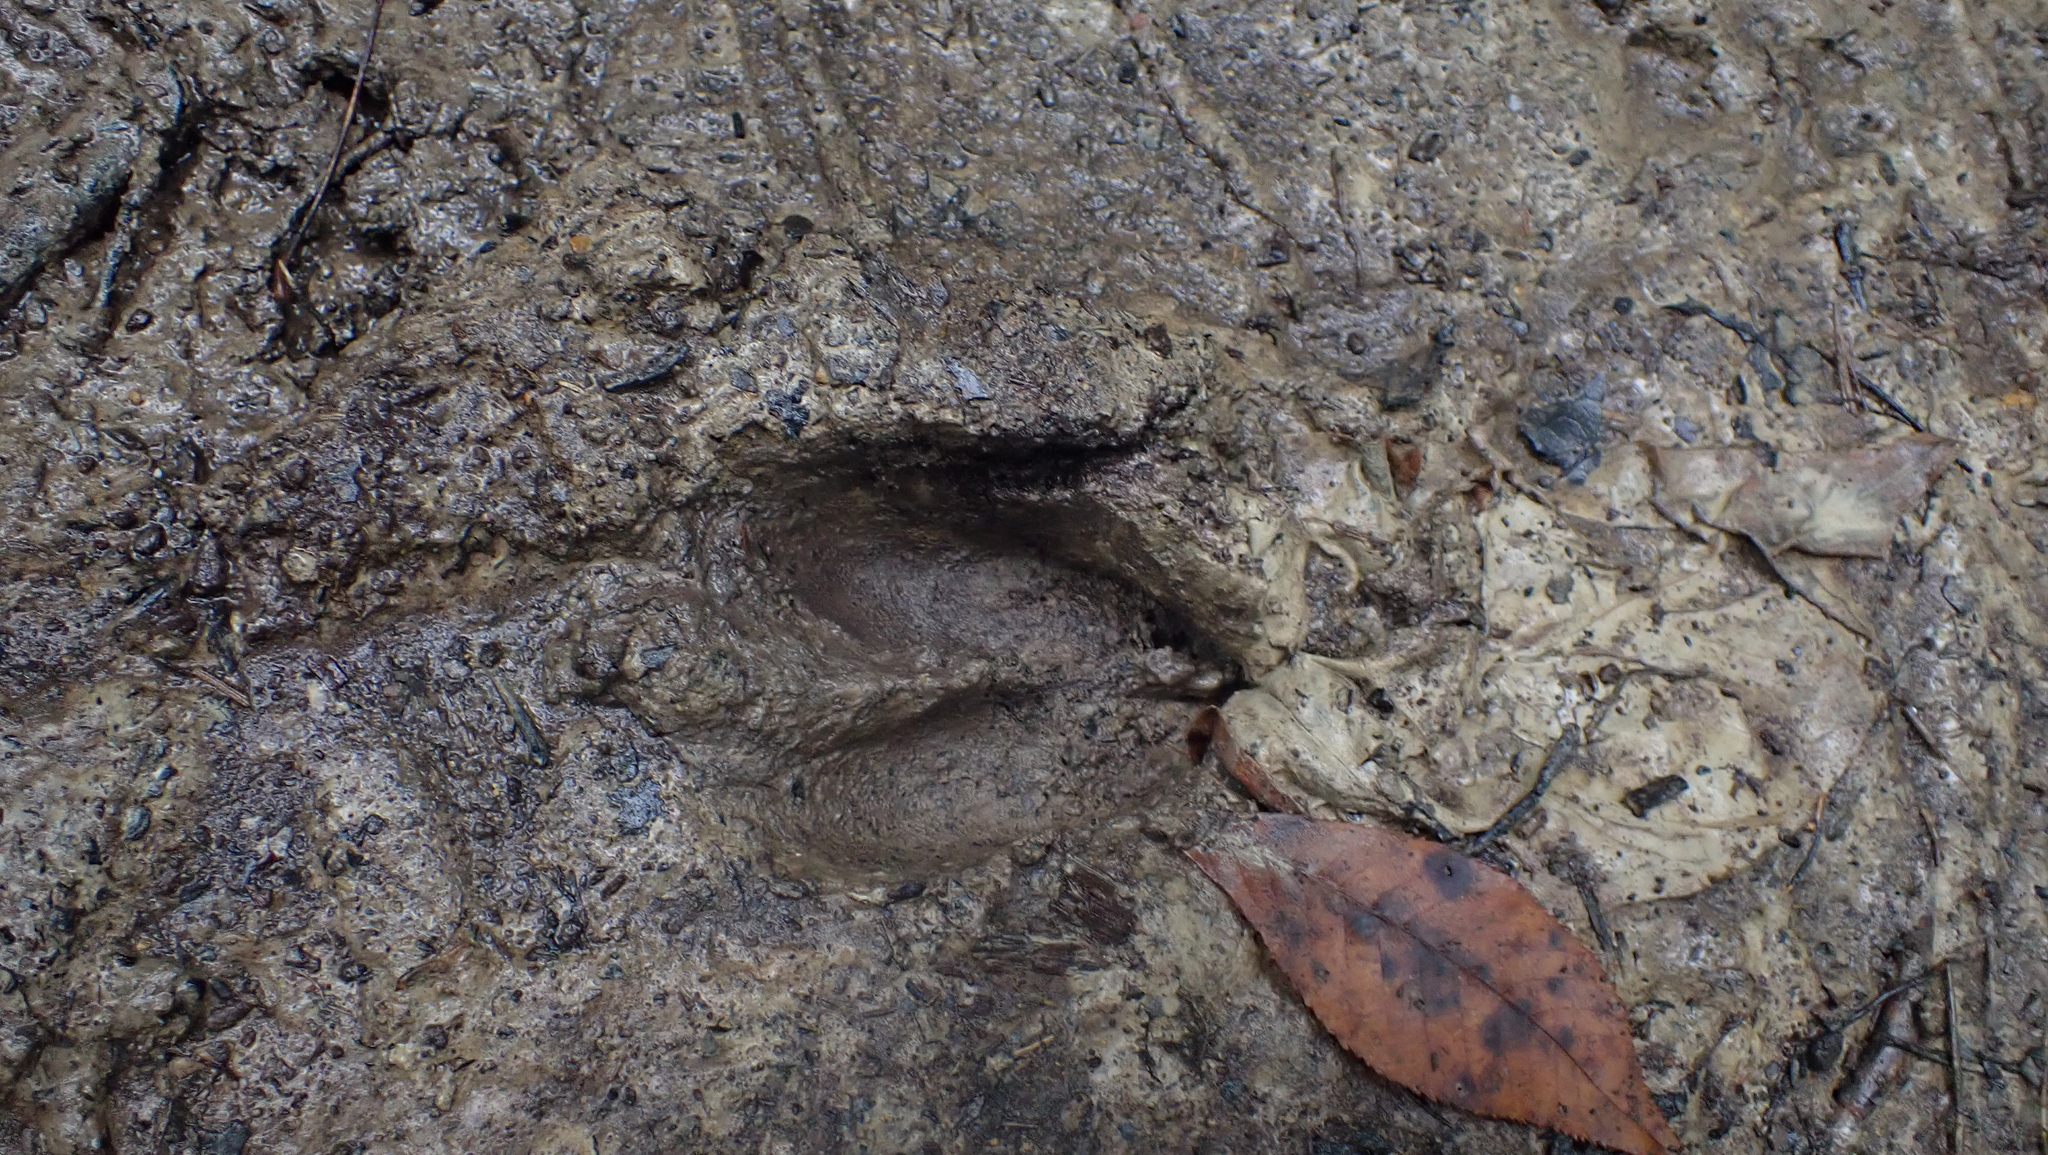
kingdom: Animalia
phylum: Chordata
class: Mammalia
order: Artiodactyla
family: Cervidae
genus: Odocoileus
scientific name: Odocoileus virginianus
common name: White-tailed deer
